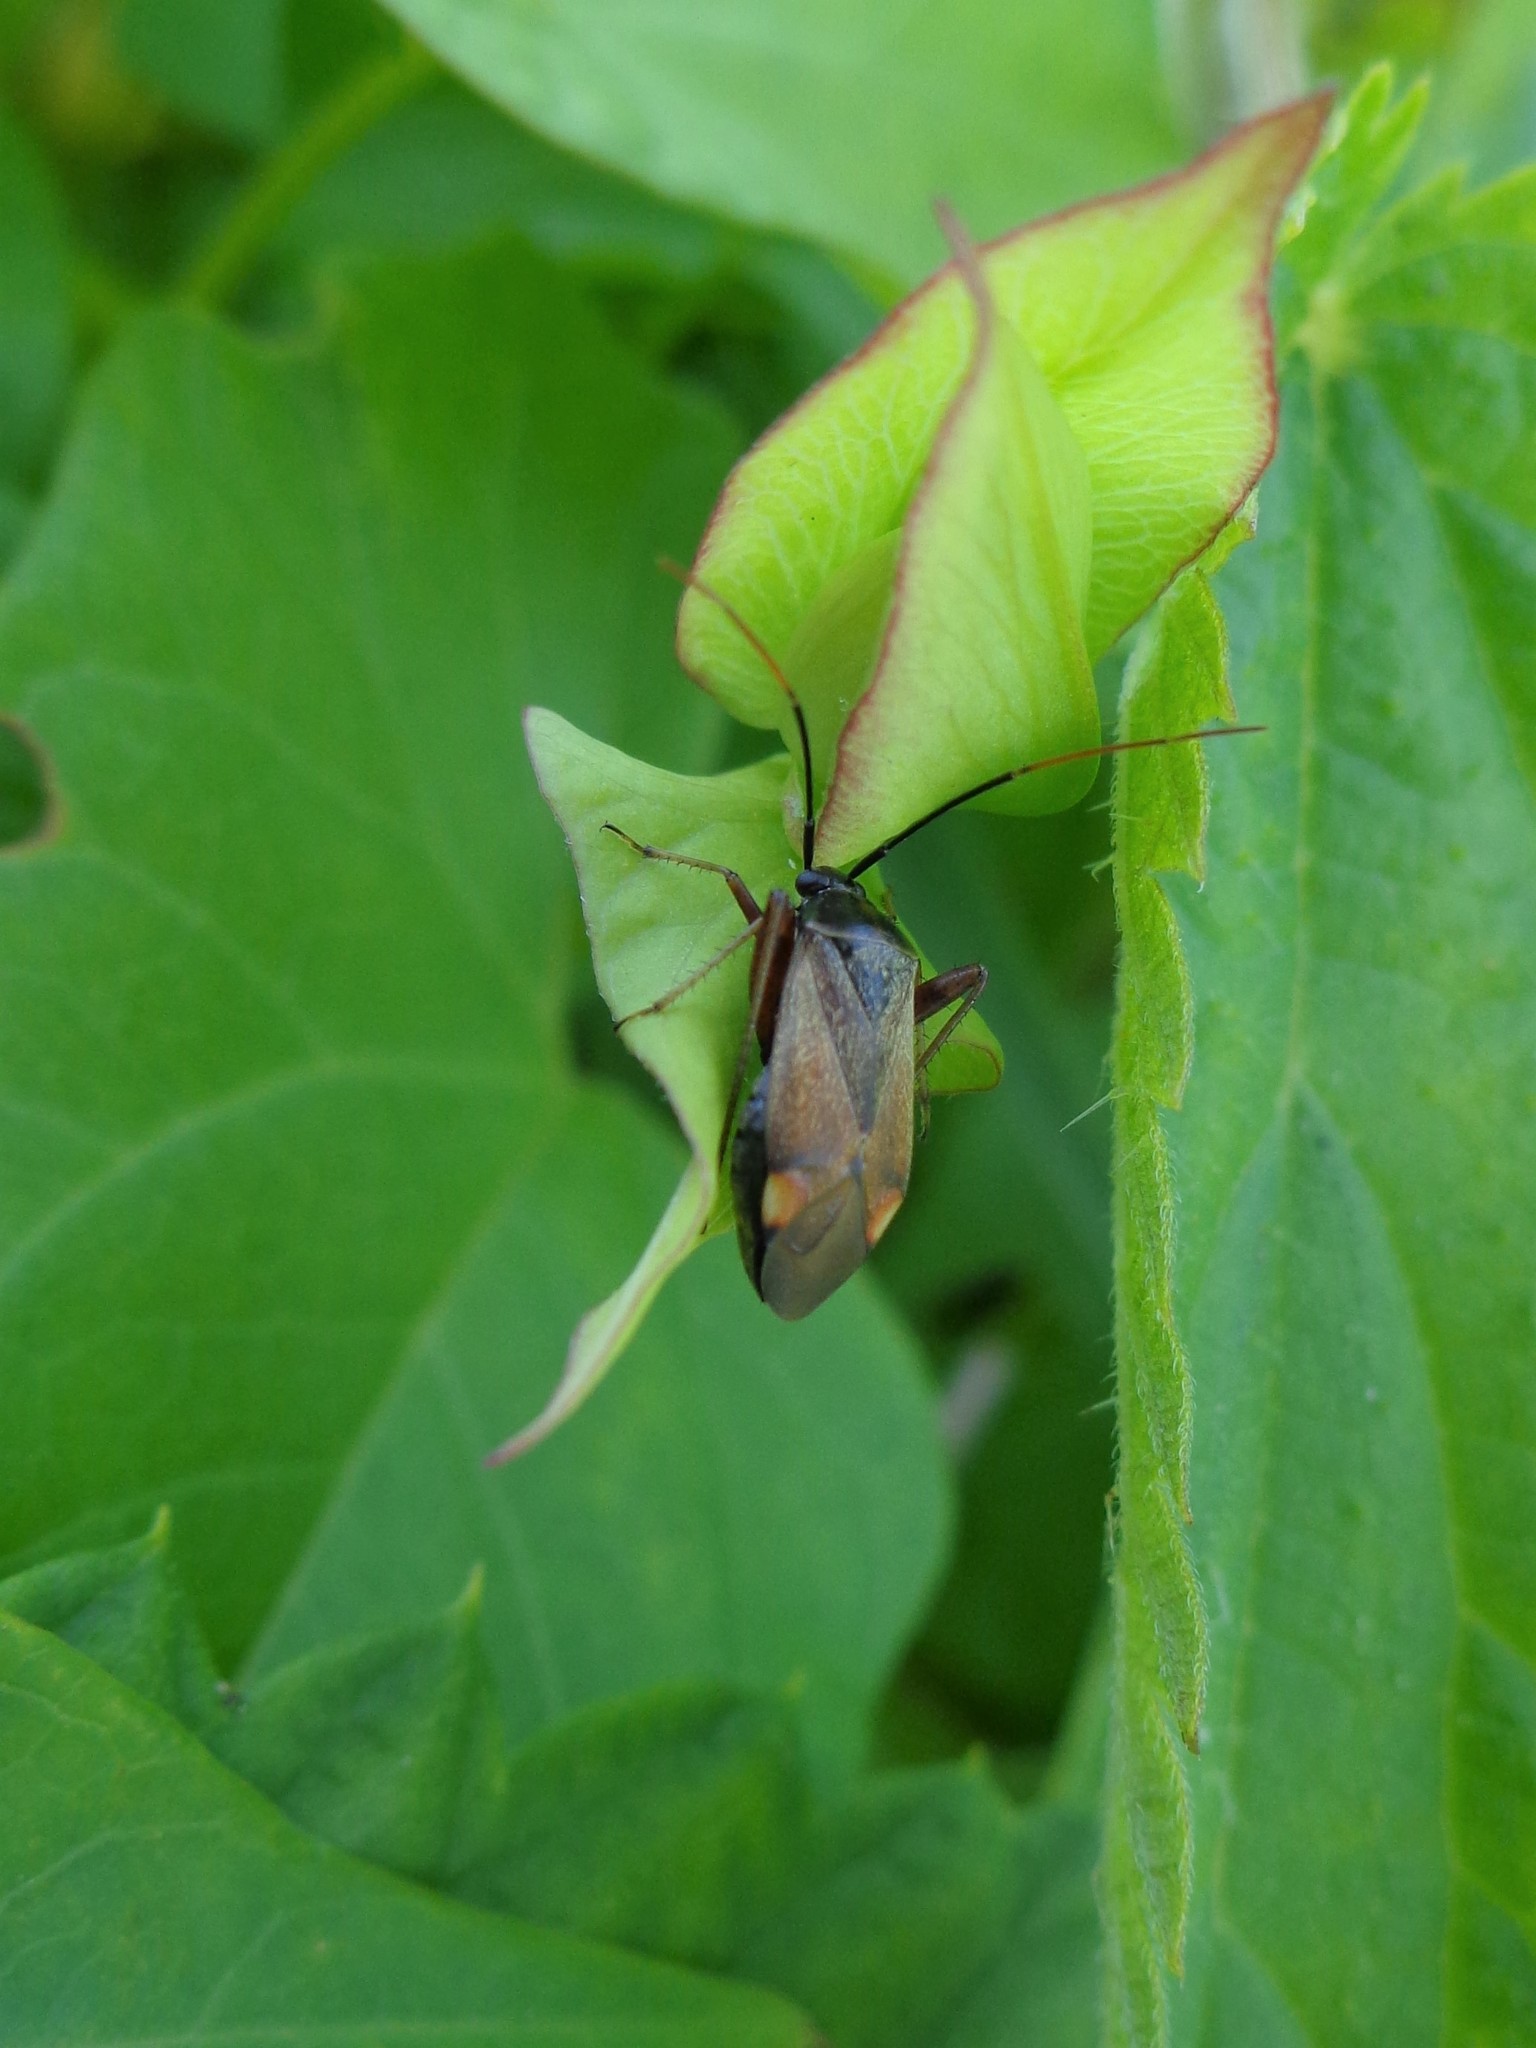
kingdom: Animalia
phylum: Arthropoda
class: Insecta
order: Hemiptera
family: Miridae
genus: Adelphocoris
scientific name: Adelphocoris seticornis
